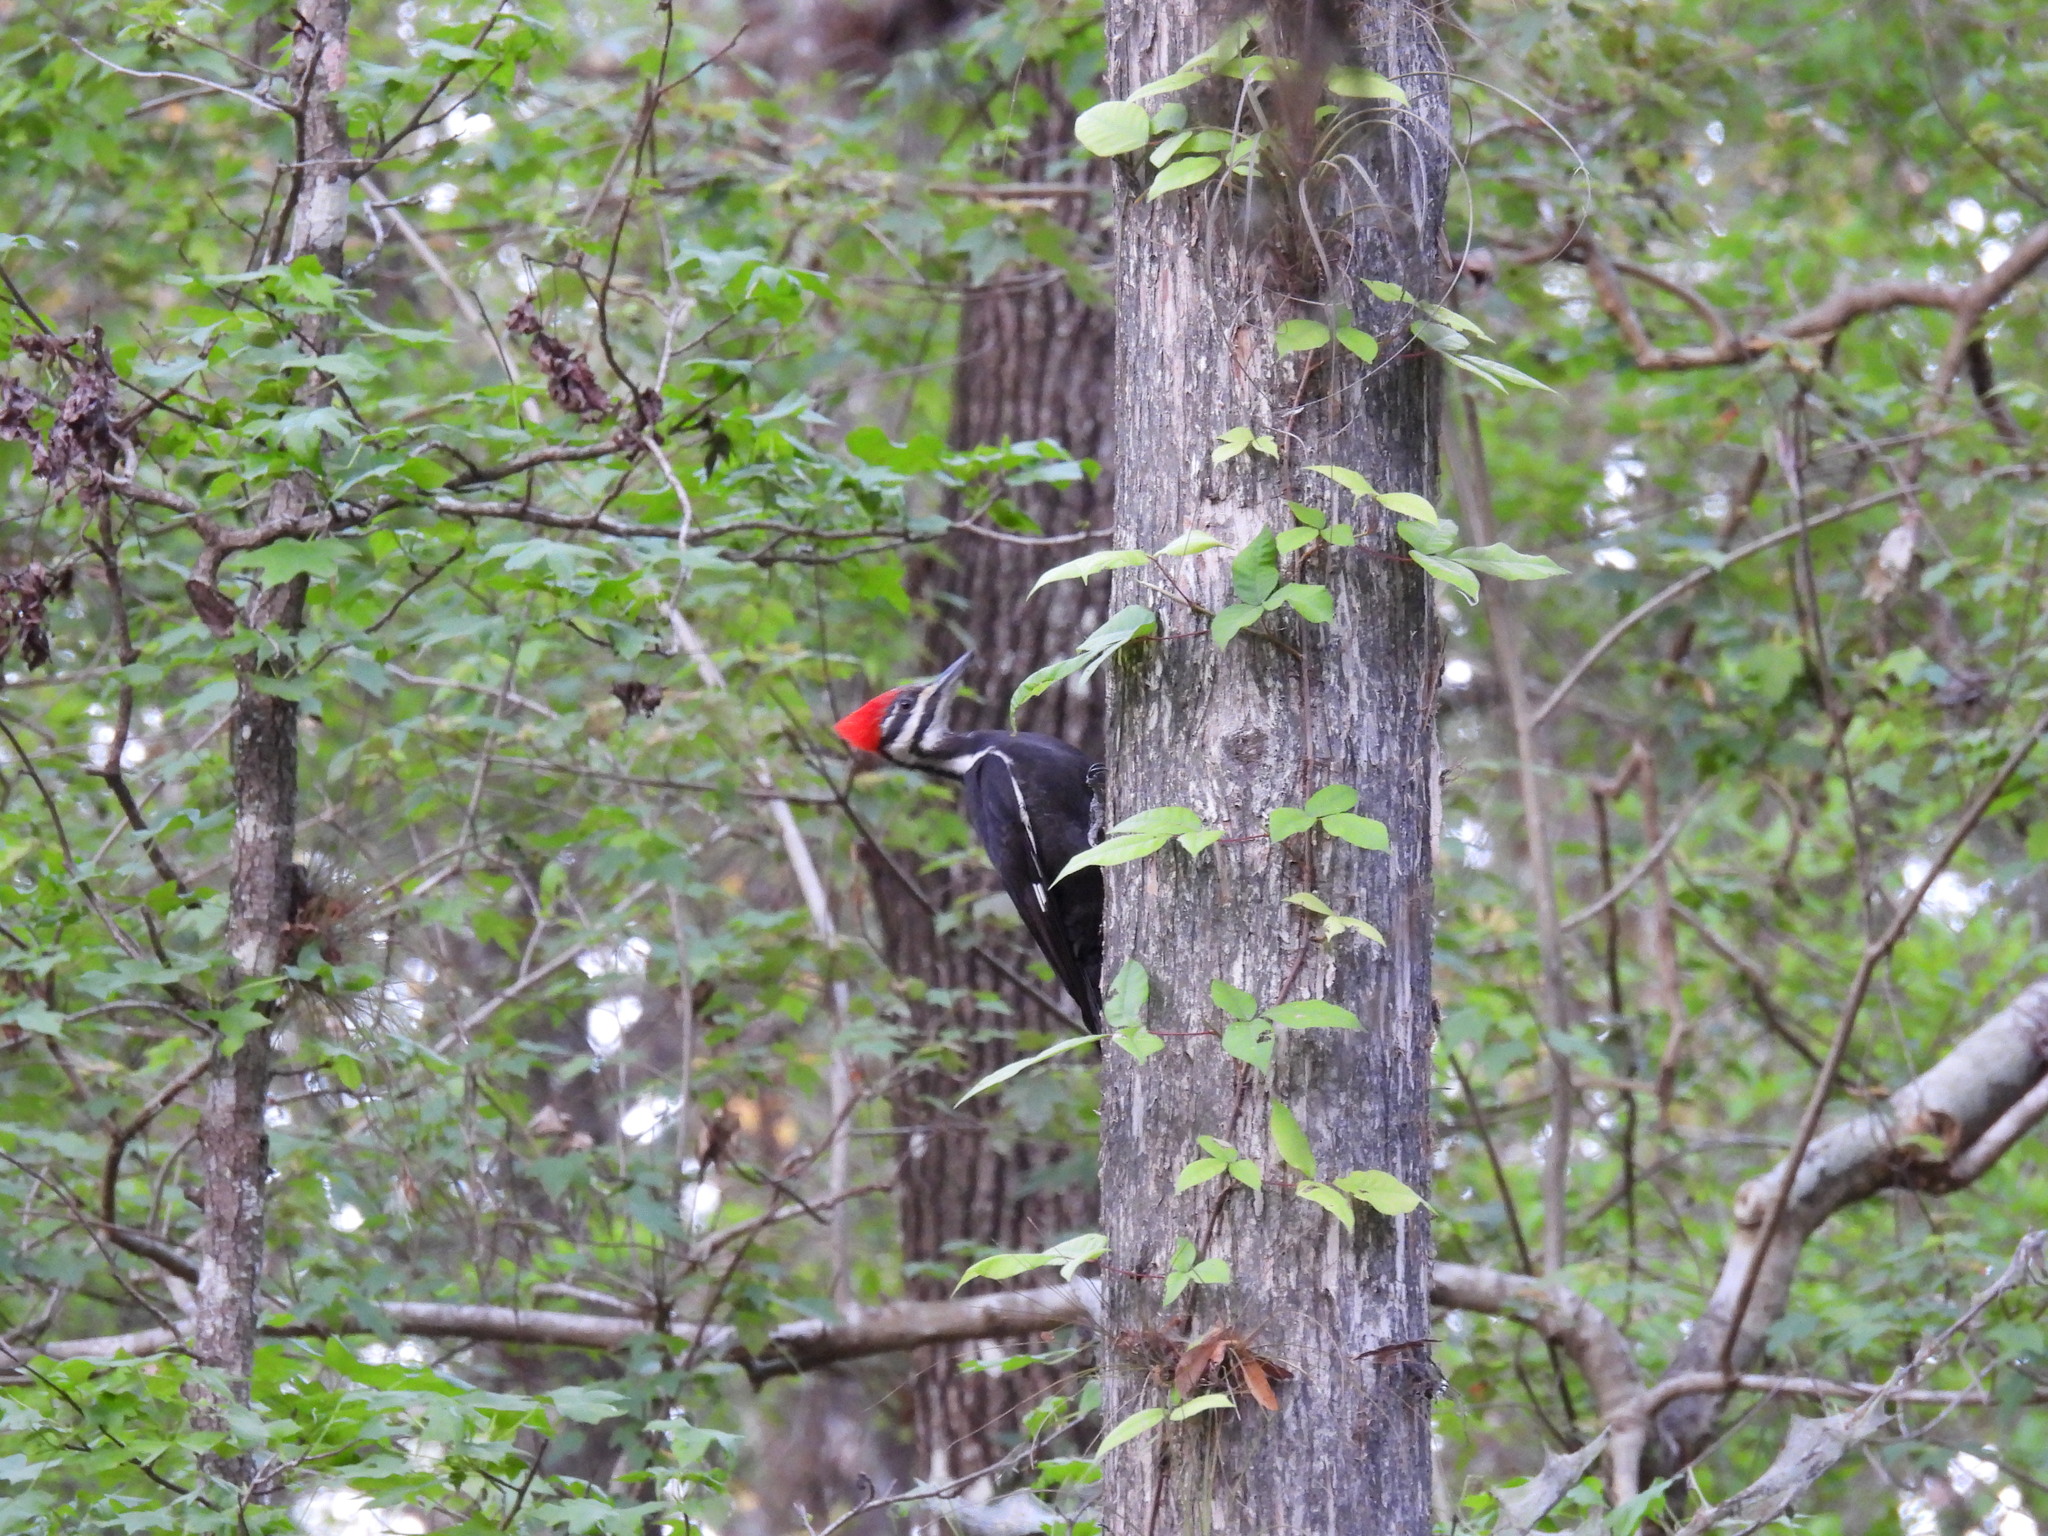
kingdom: Animalia
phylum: Chordata
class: Aves
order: Piciformes
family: Picidae
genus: Dryocopus
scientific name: Dryocopus pileatus
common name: Pileated woodpecker
